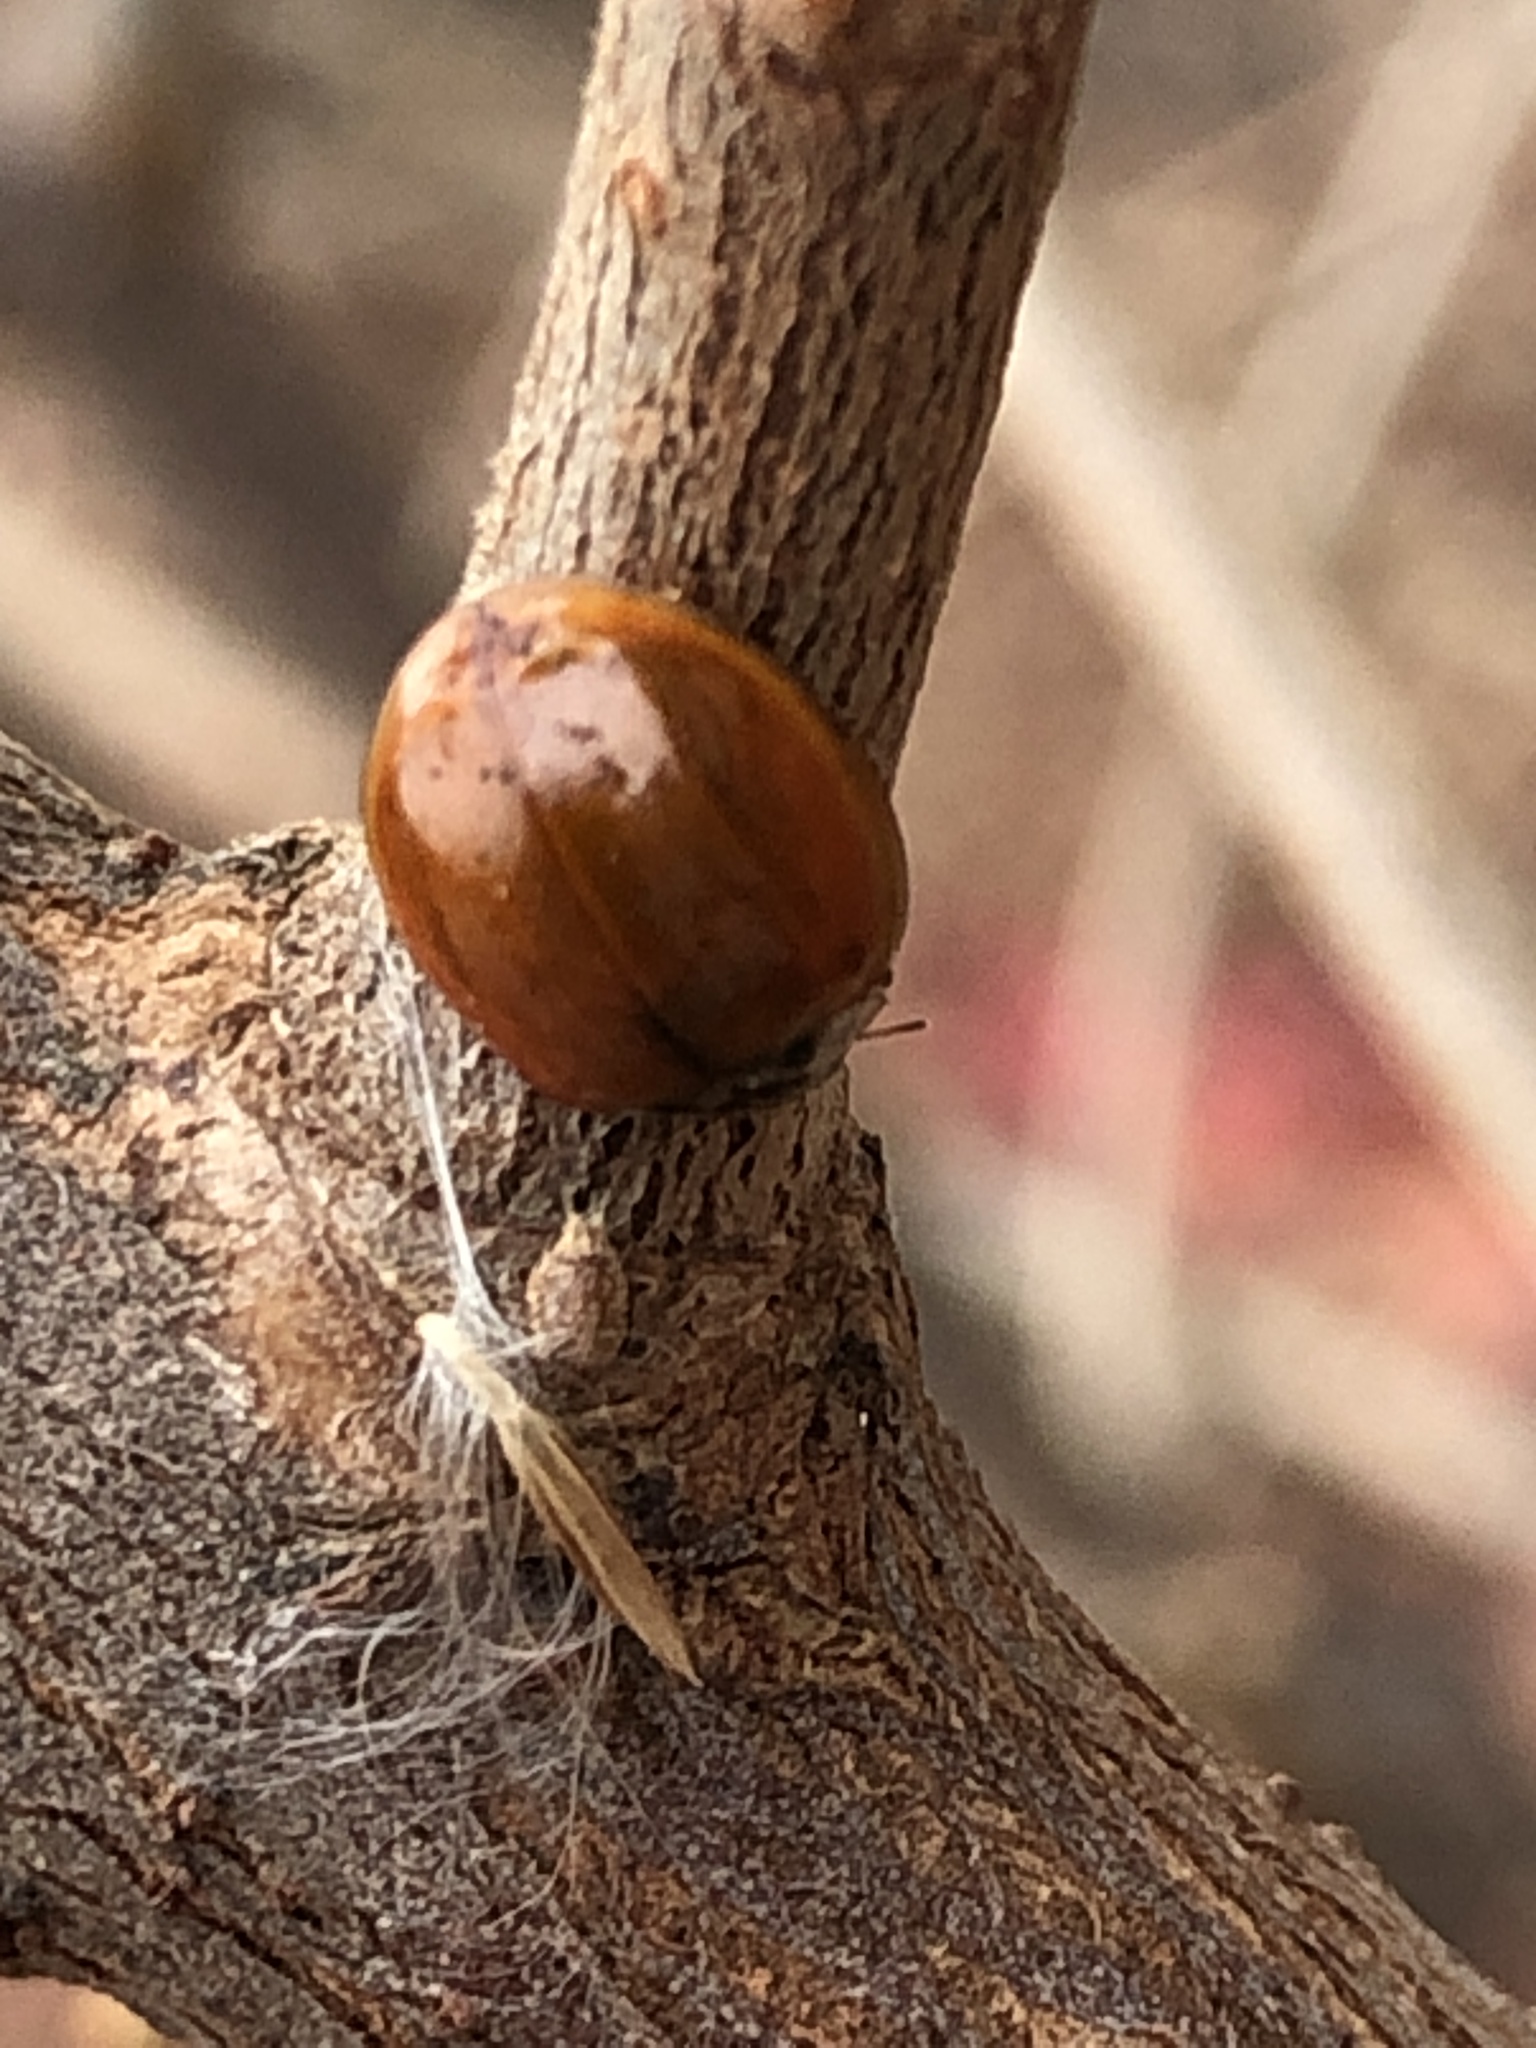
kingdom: Animalia
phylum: Arthropoda
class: Insecta
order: Coleoptera
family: Coccinellidae
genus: Harmonia
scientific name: Harmonia axyridis
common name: Harlequin ladybird
